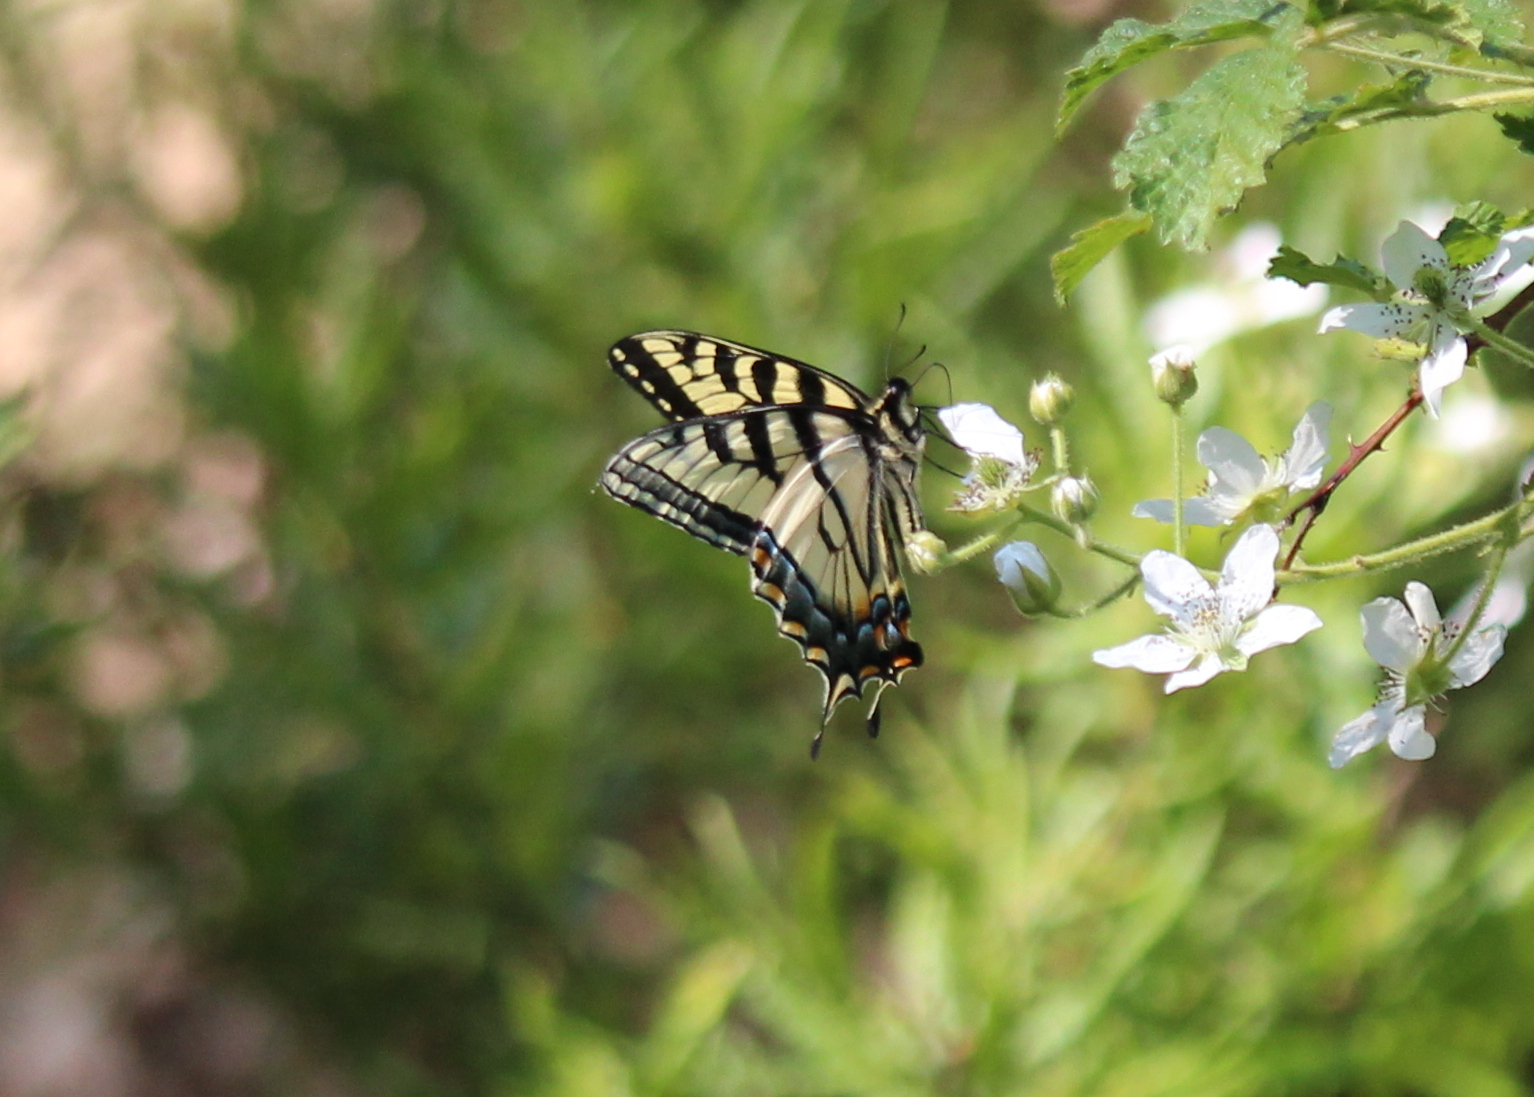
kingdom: Animalia
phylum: Arthropoda
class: Insecta
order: Lepidoptera
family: Papilionidae
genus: Papilio
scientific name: Papilio canadensis
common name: Canadian tiger swallowtail
